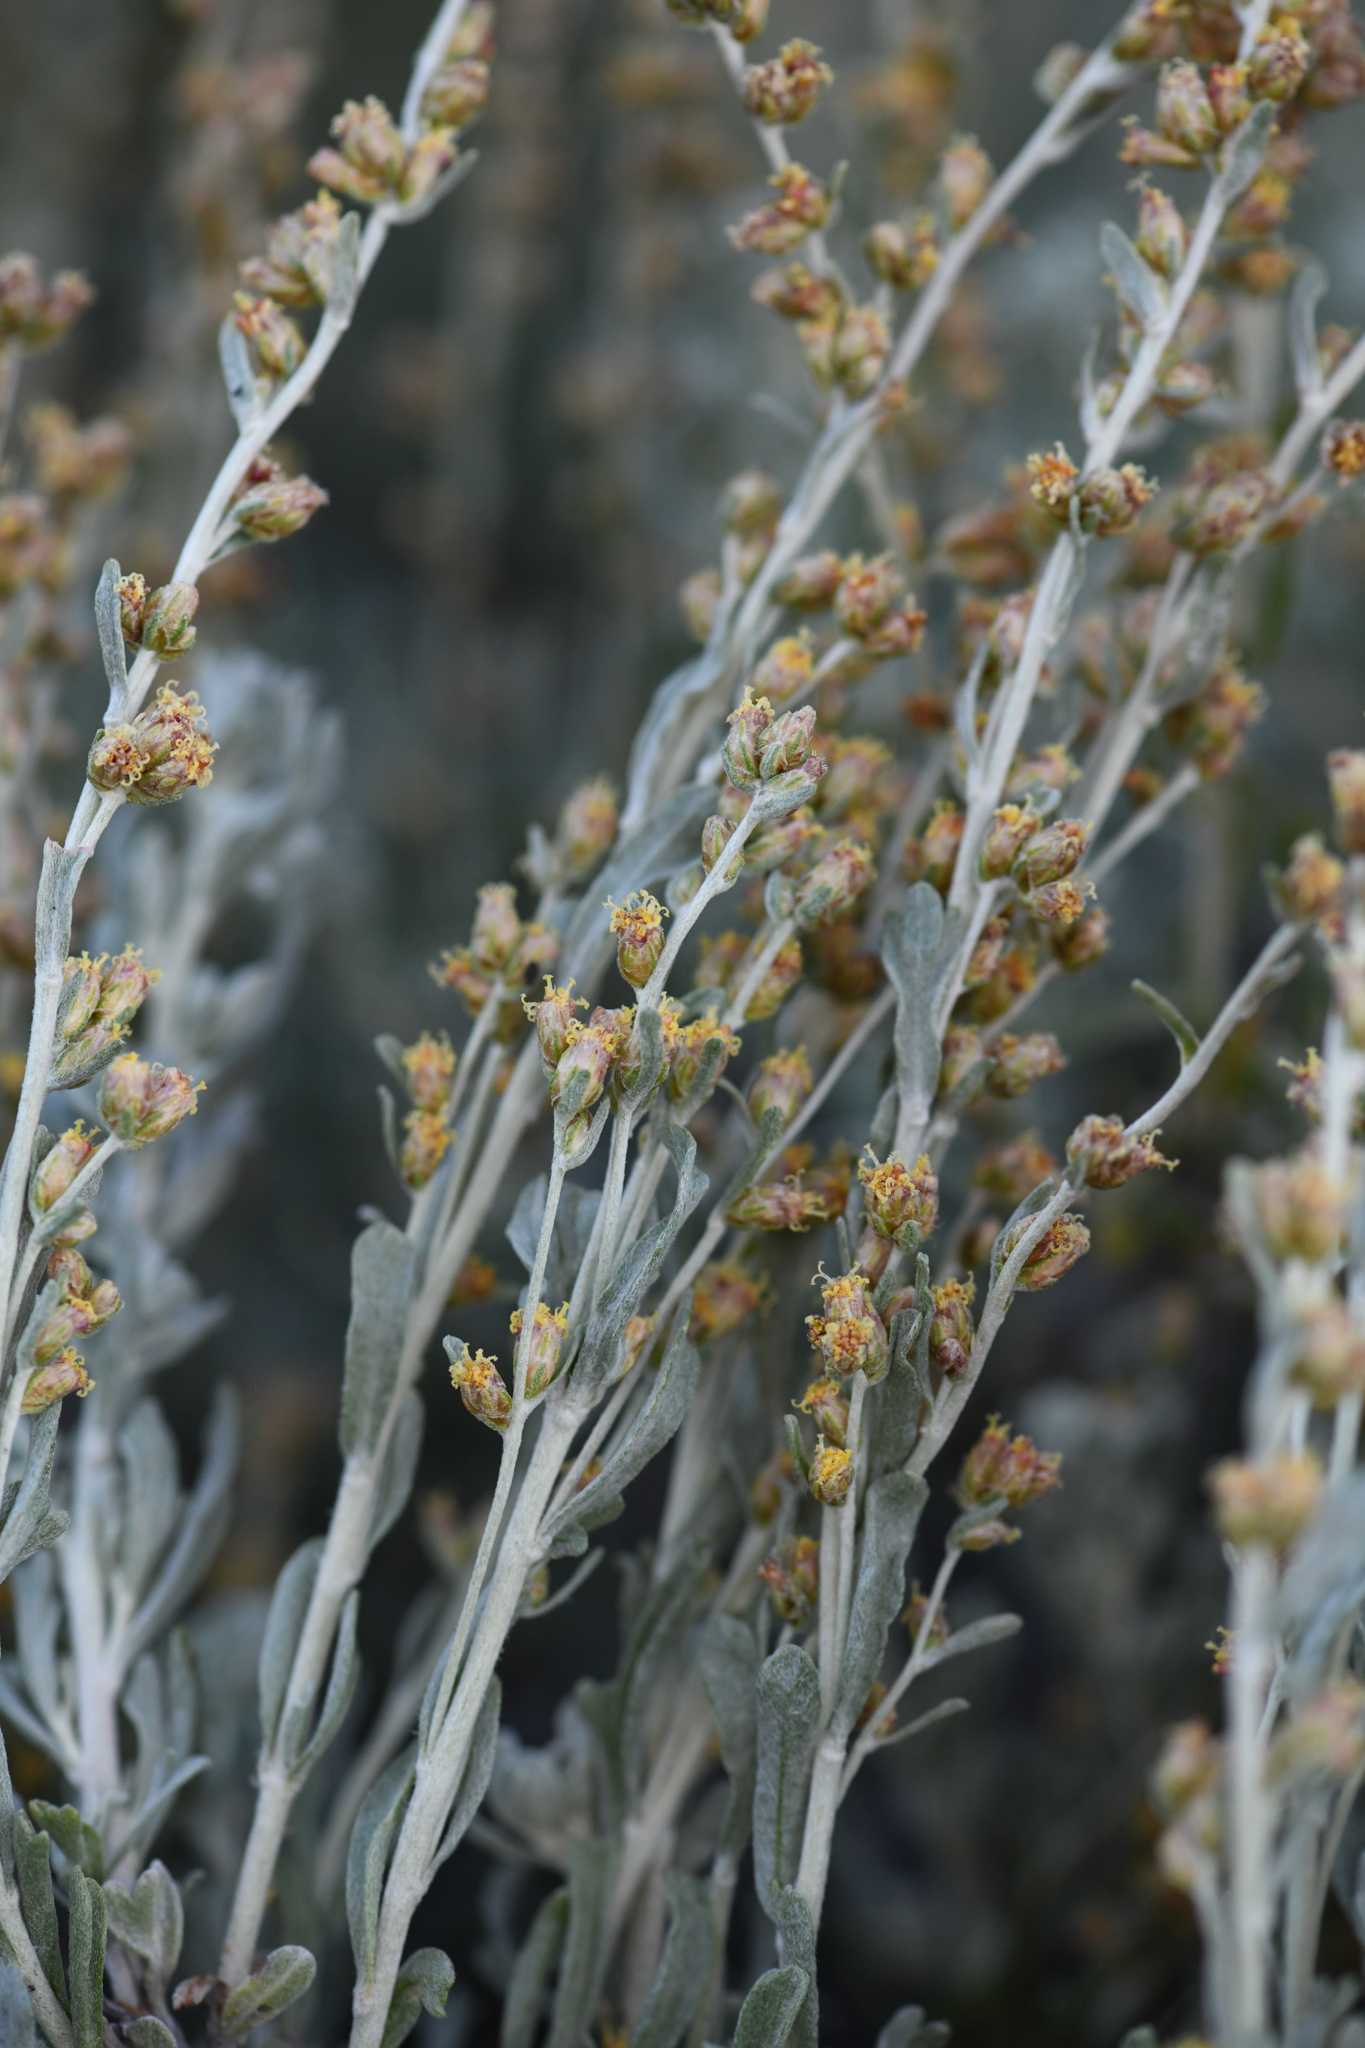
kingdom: Plantae
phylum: Tracheophyta
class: Magnoliopsida
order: Asterales
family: Asteraceae
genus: Artemisia
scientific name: Artemisia rothrockii
